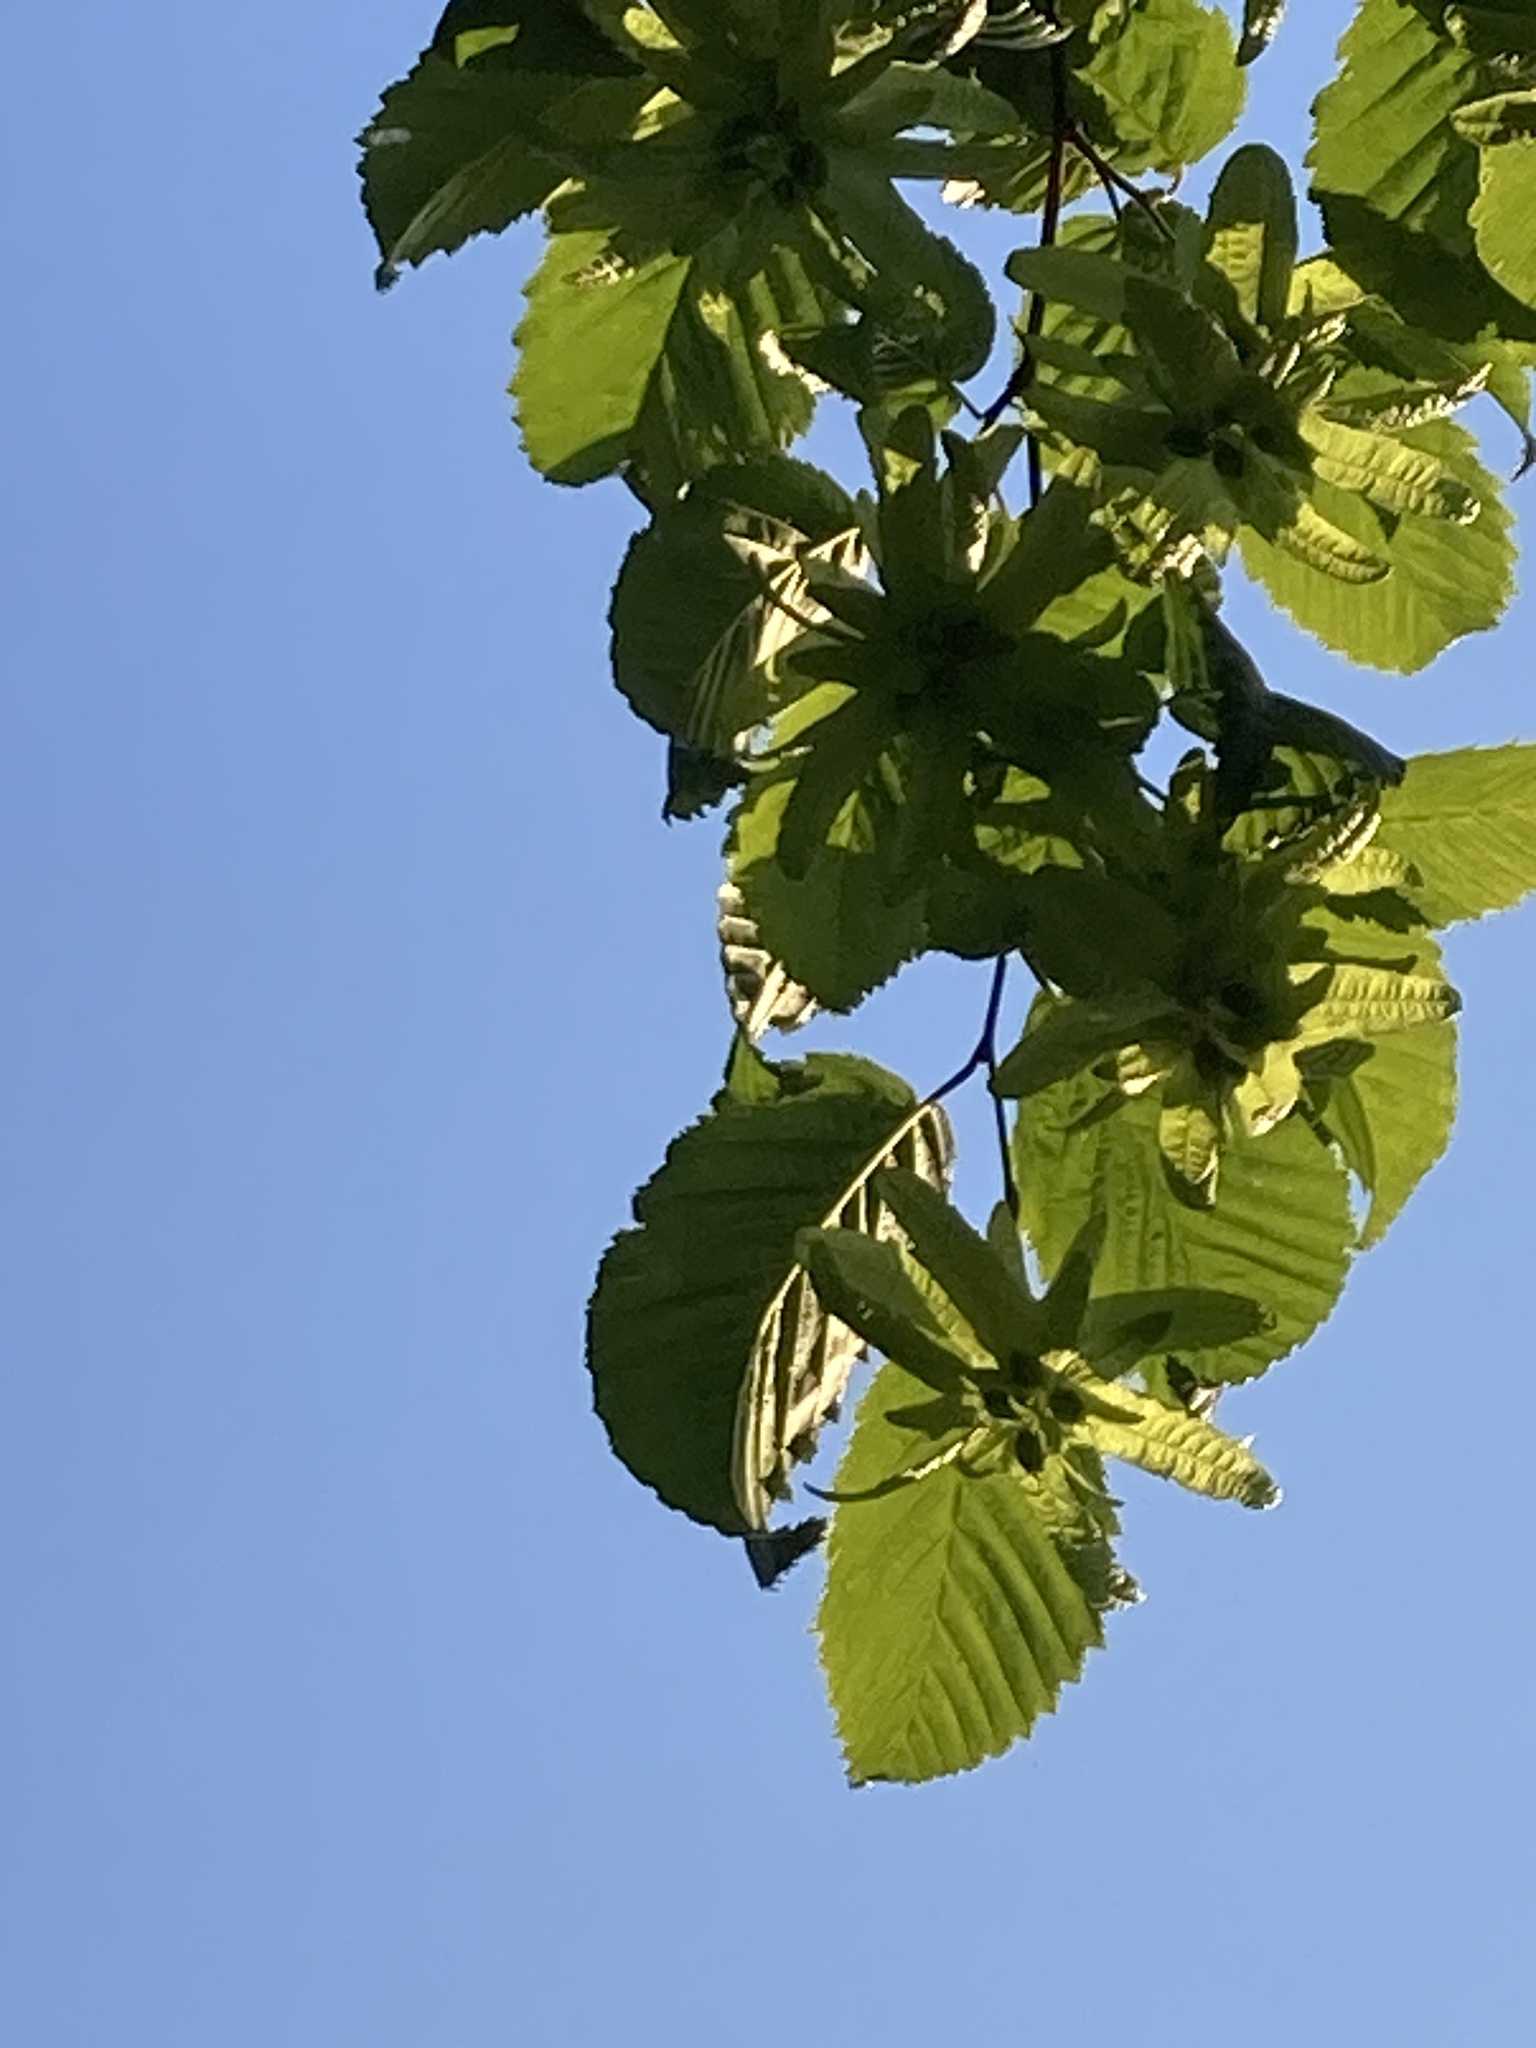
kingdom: Plantae
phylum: Tracheophyta
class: Magnoliopsida
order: Fagales
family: Betulaceae
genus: Carpinus
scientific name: Carpinus betulus
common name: Hornbeam
